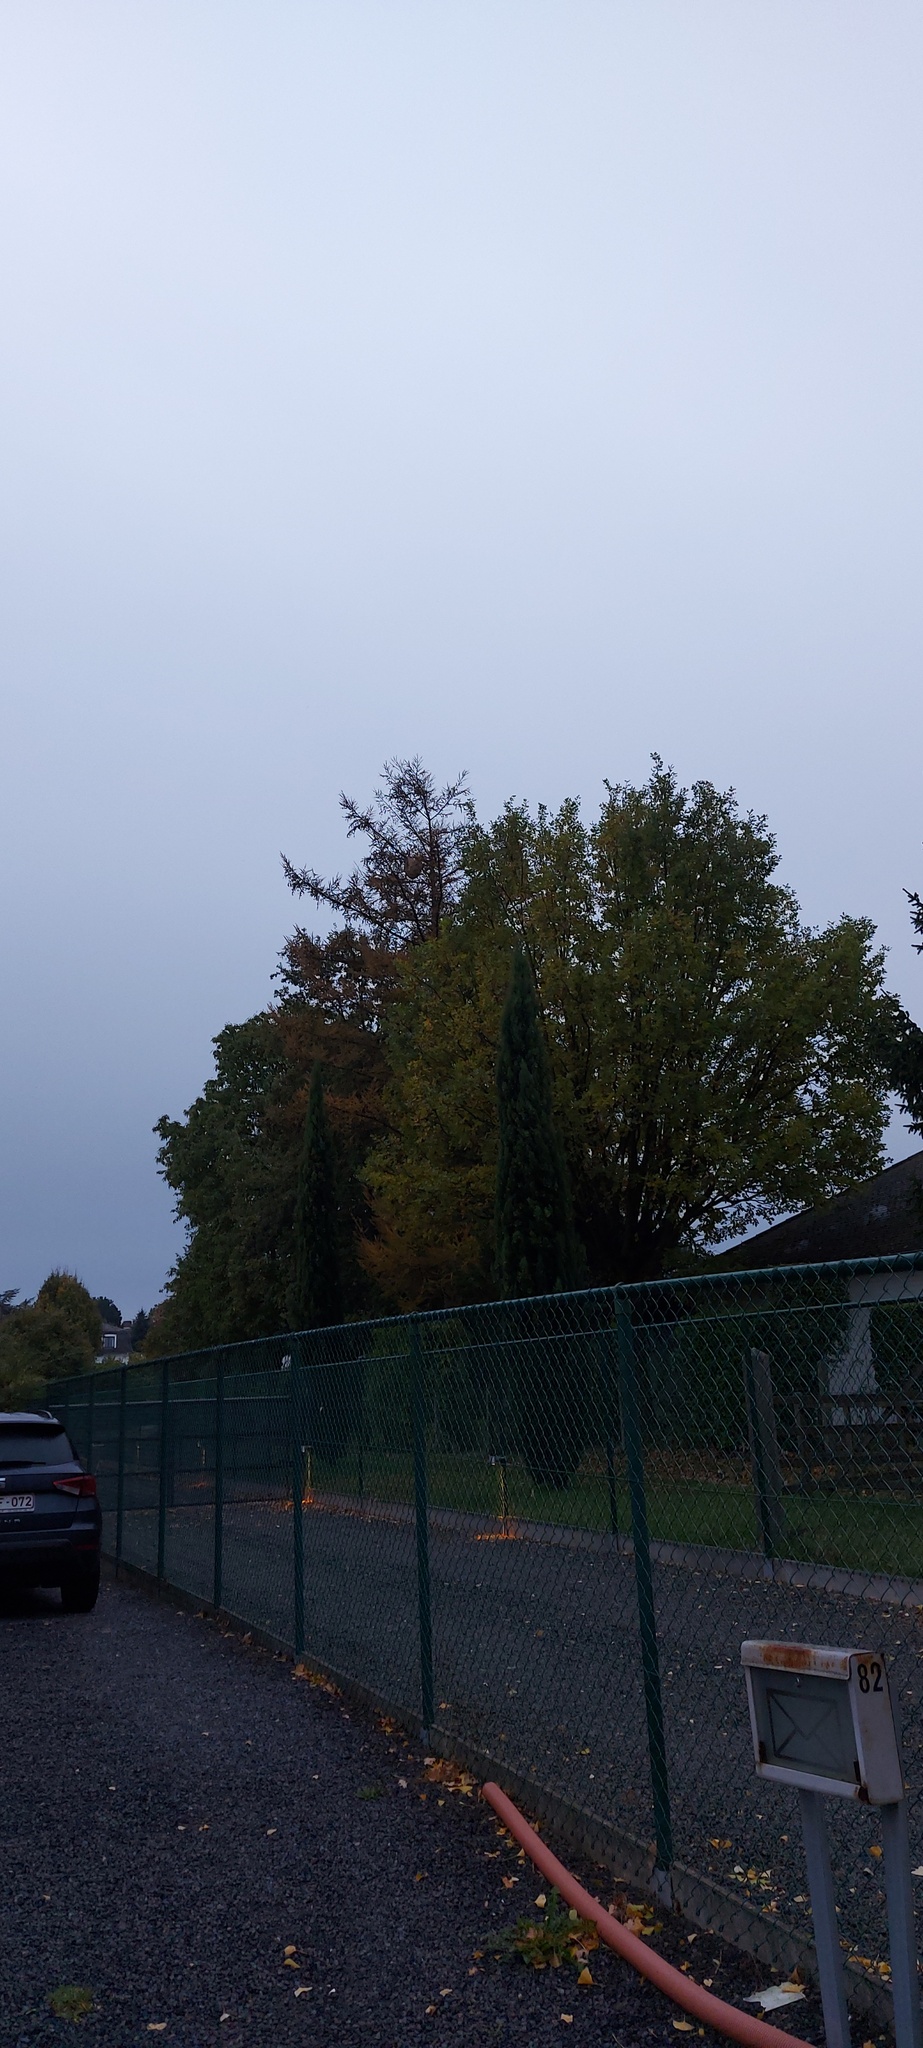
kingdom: Animalia
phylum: Arthropoda
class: Insecta
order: Hymenoptera
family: Vespidae
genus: Vespa
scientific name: Vespa velutina
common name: Asian hornet
